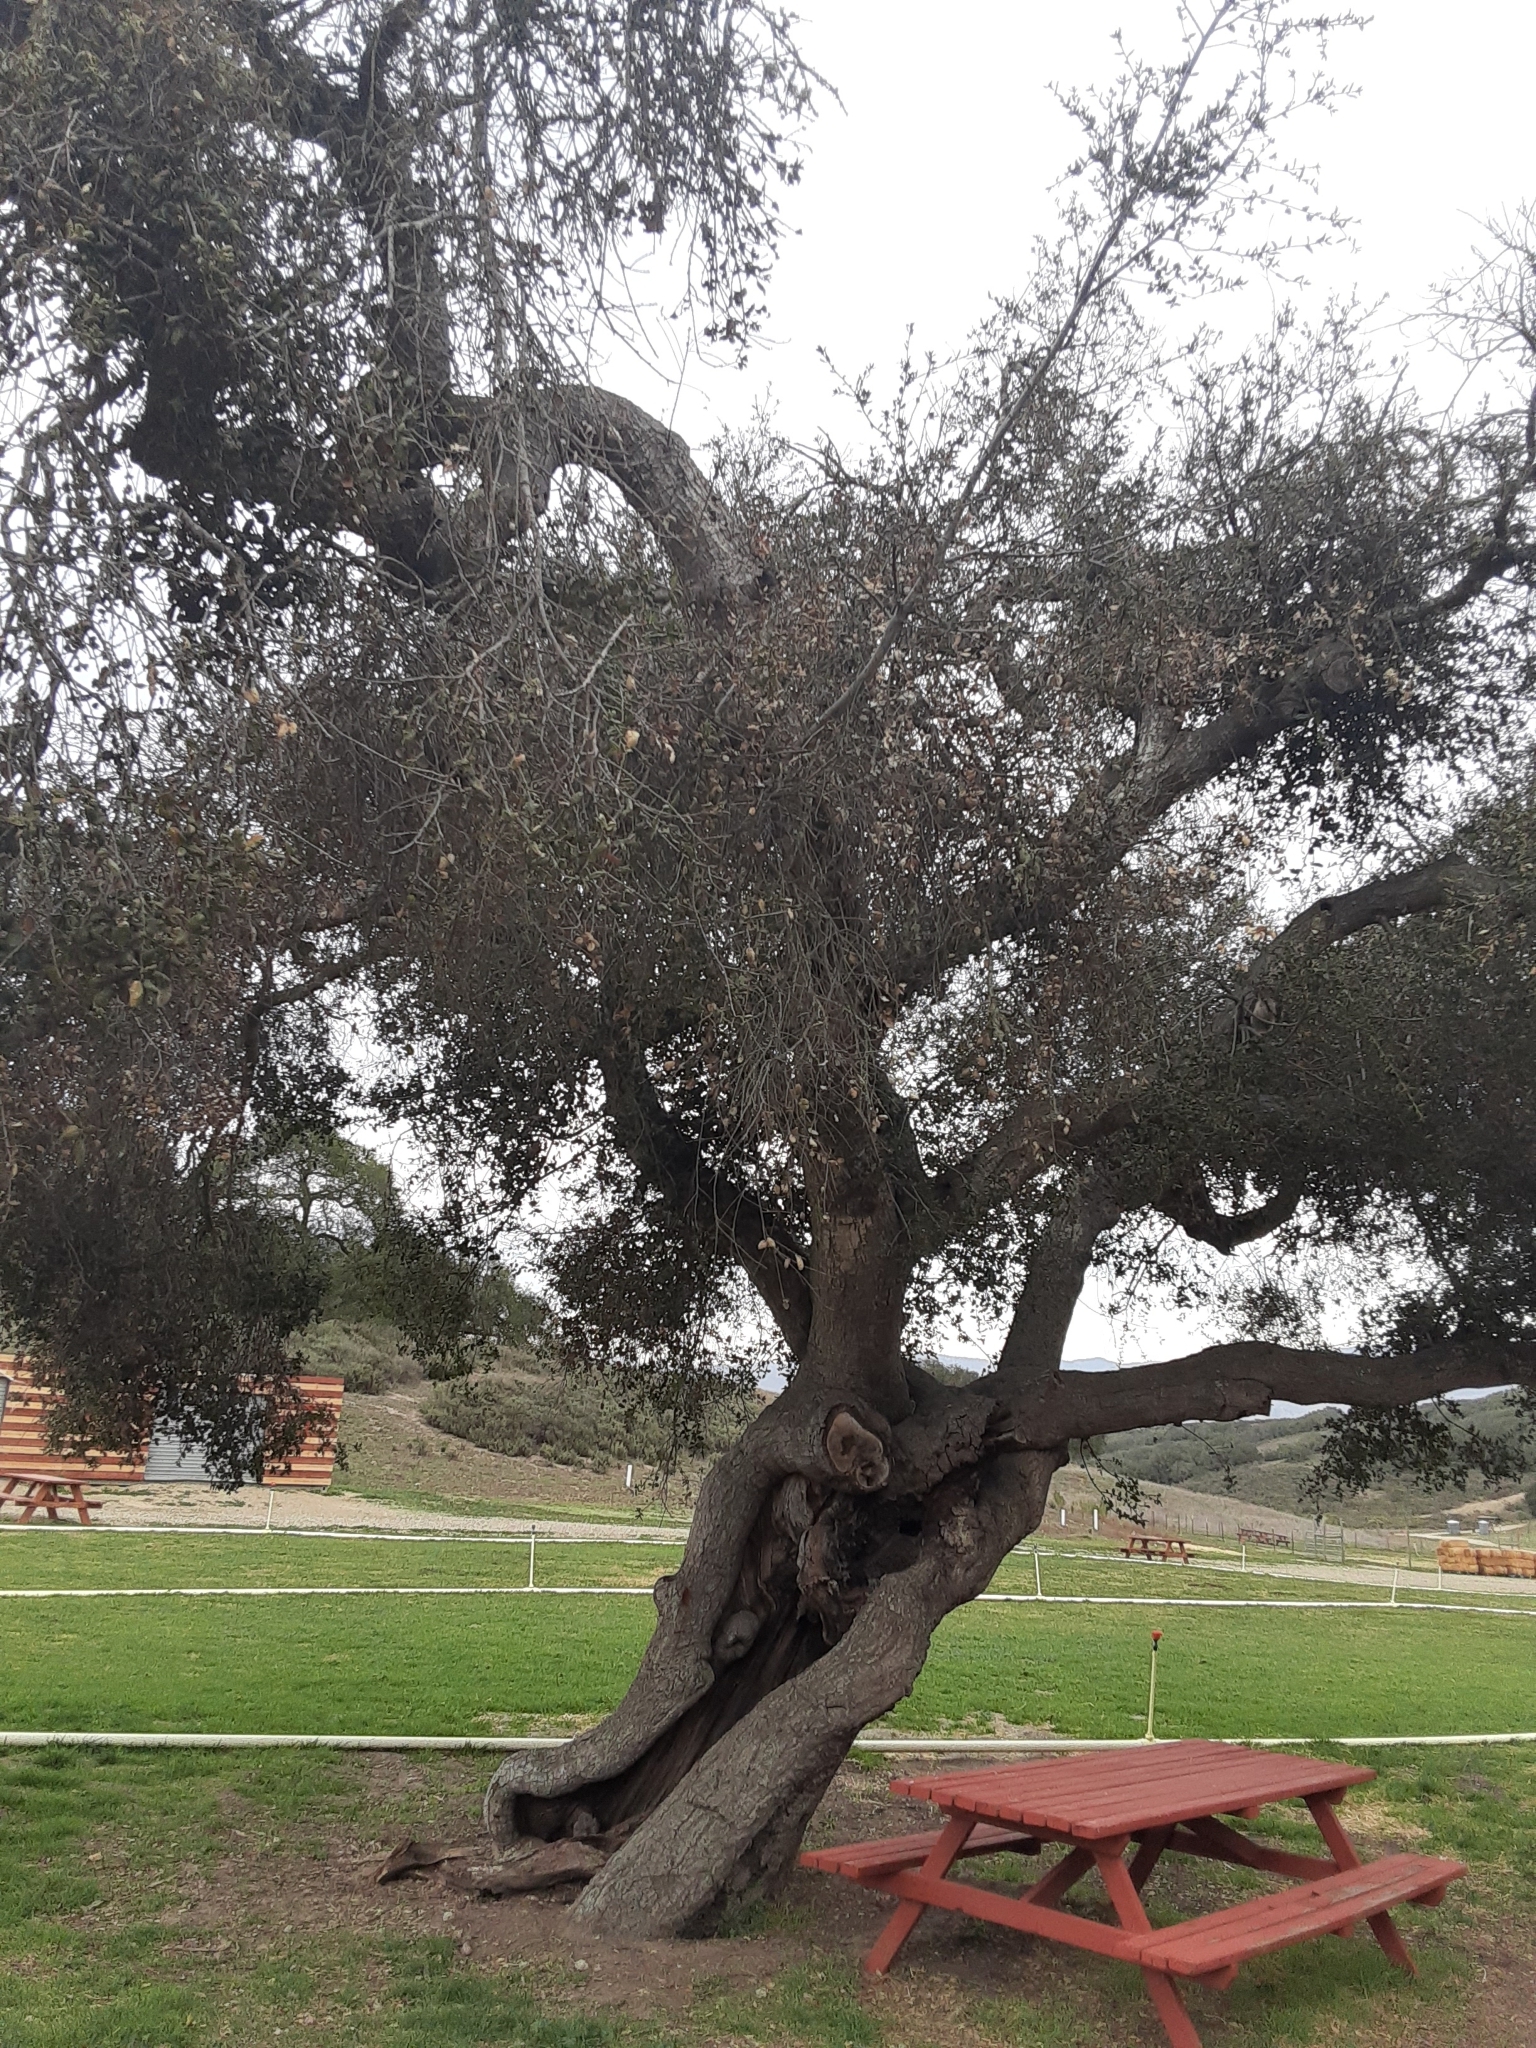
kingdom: Plantae
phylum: Tracheophyta
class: Magnoliopsida
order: Fagales
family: Fagaceae
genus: Quercus
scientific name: Quercus agrifolia
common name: California live oak
